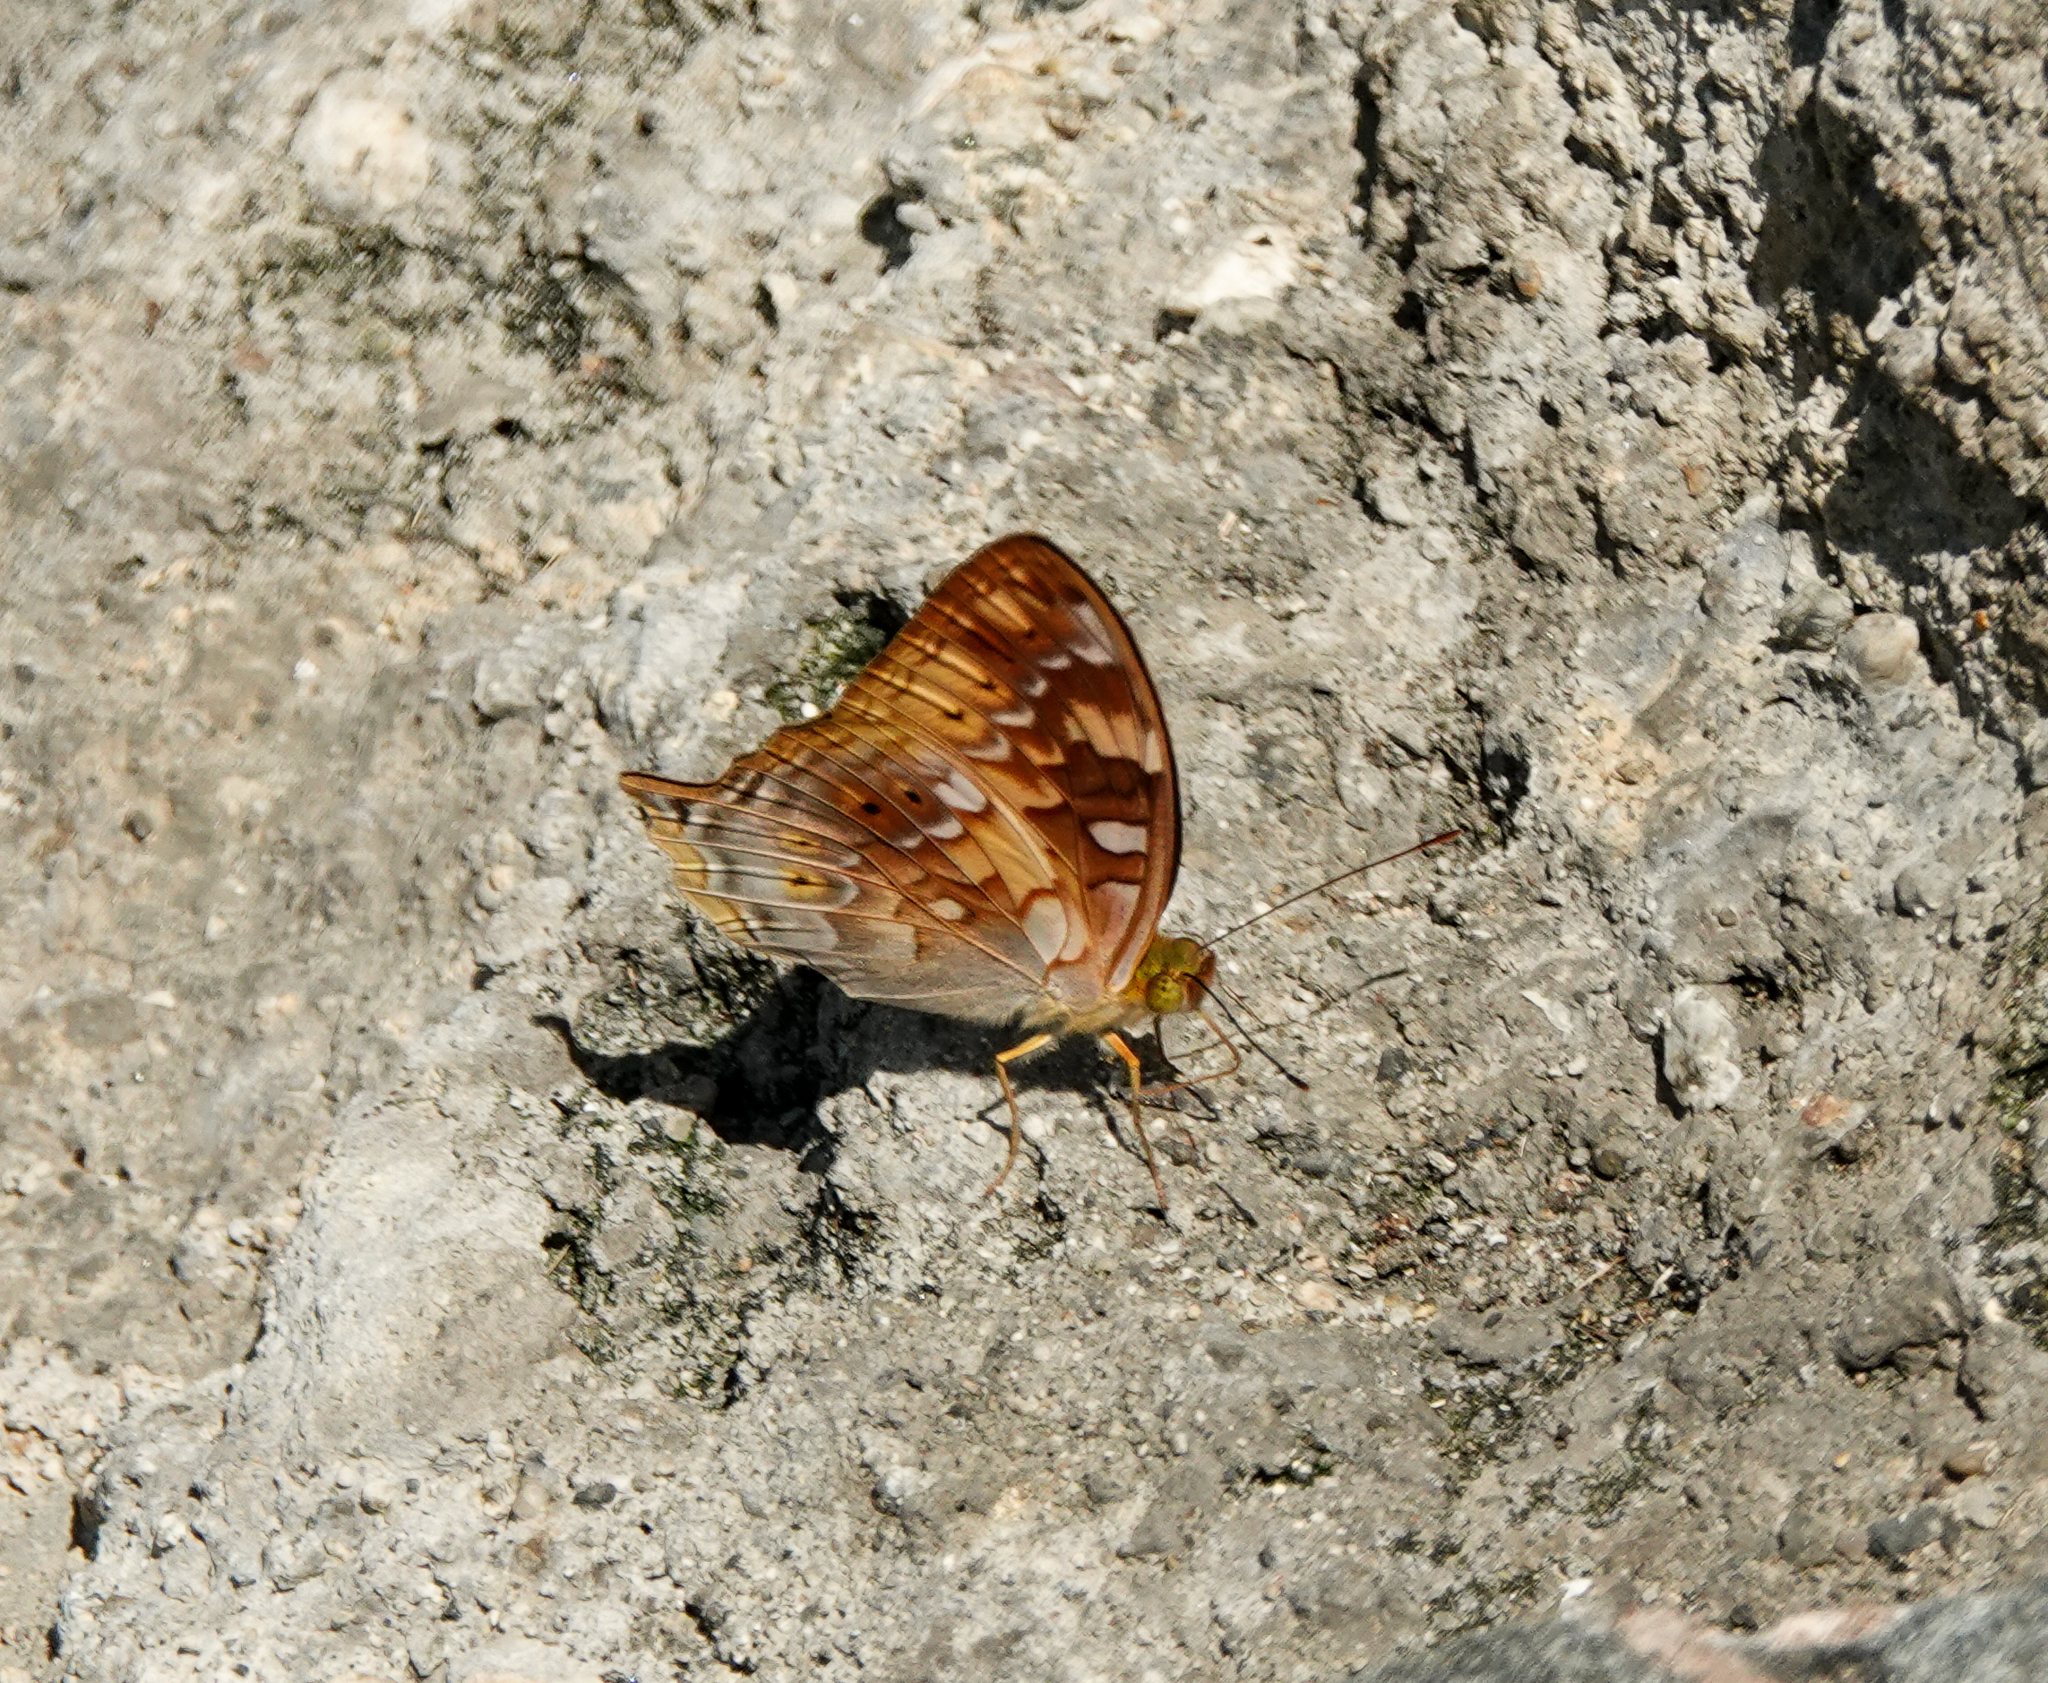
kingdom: Animalia
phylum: Arthropoda
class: Insecta
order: Lepidoptera
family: Nymphalidae
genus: Vagrans
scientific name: Vagrans sinha
